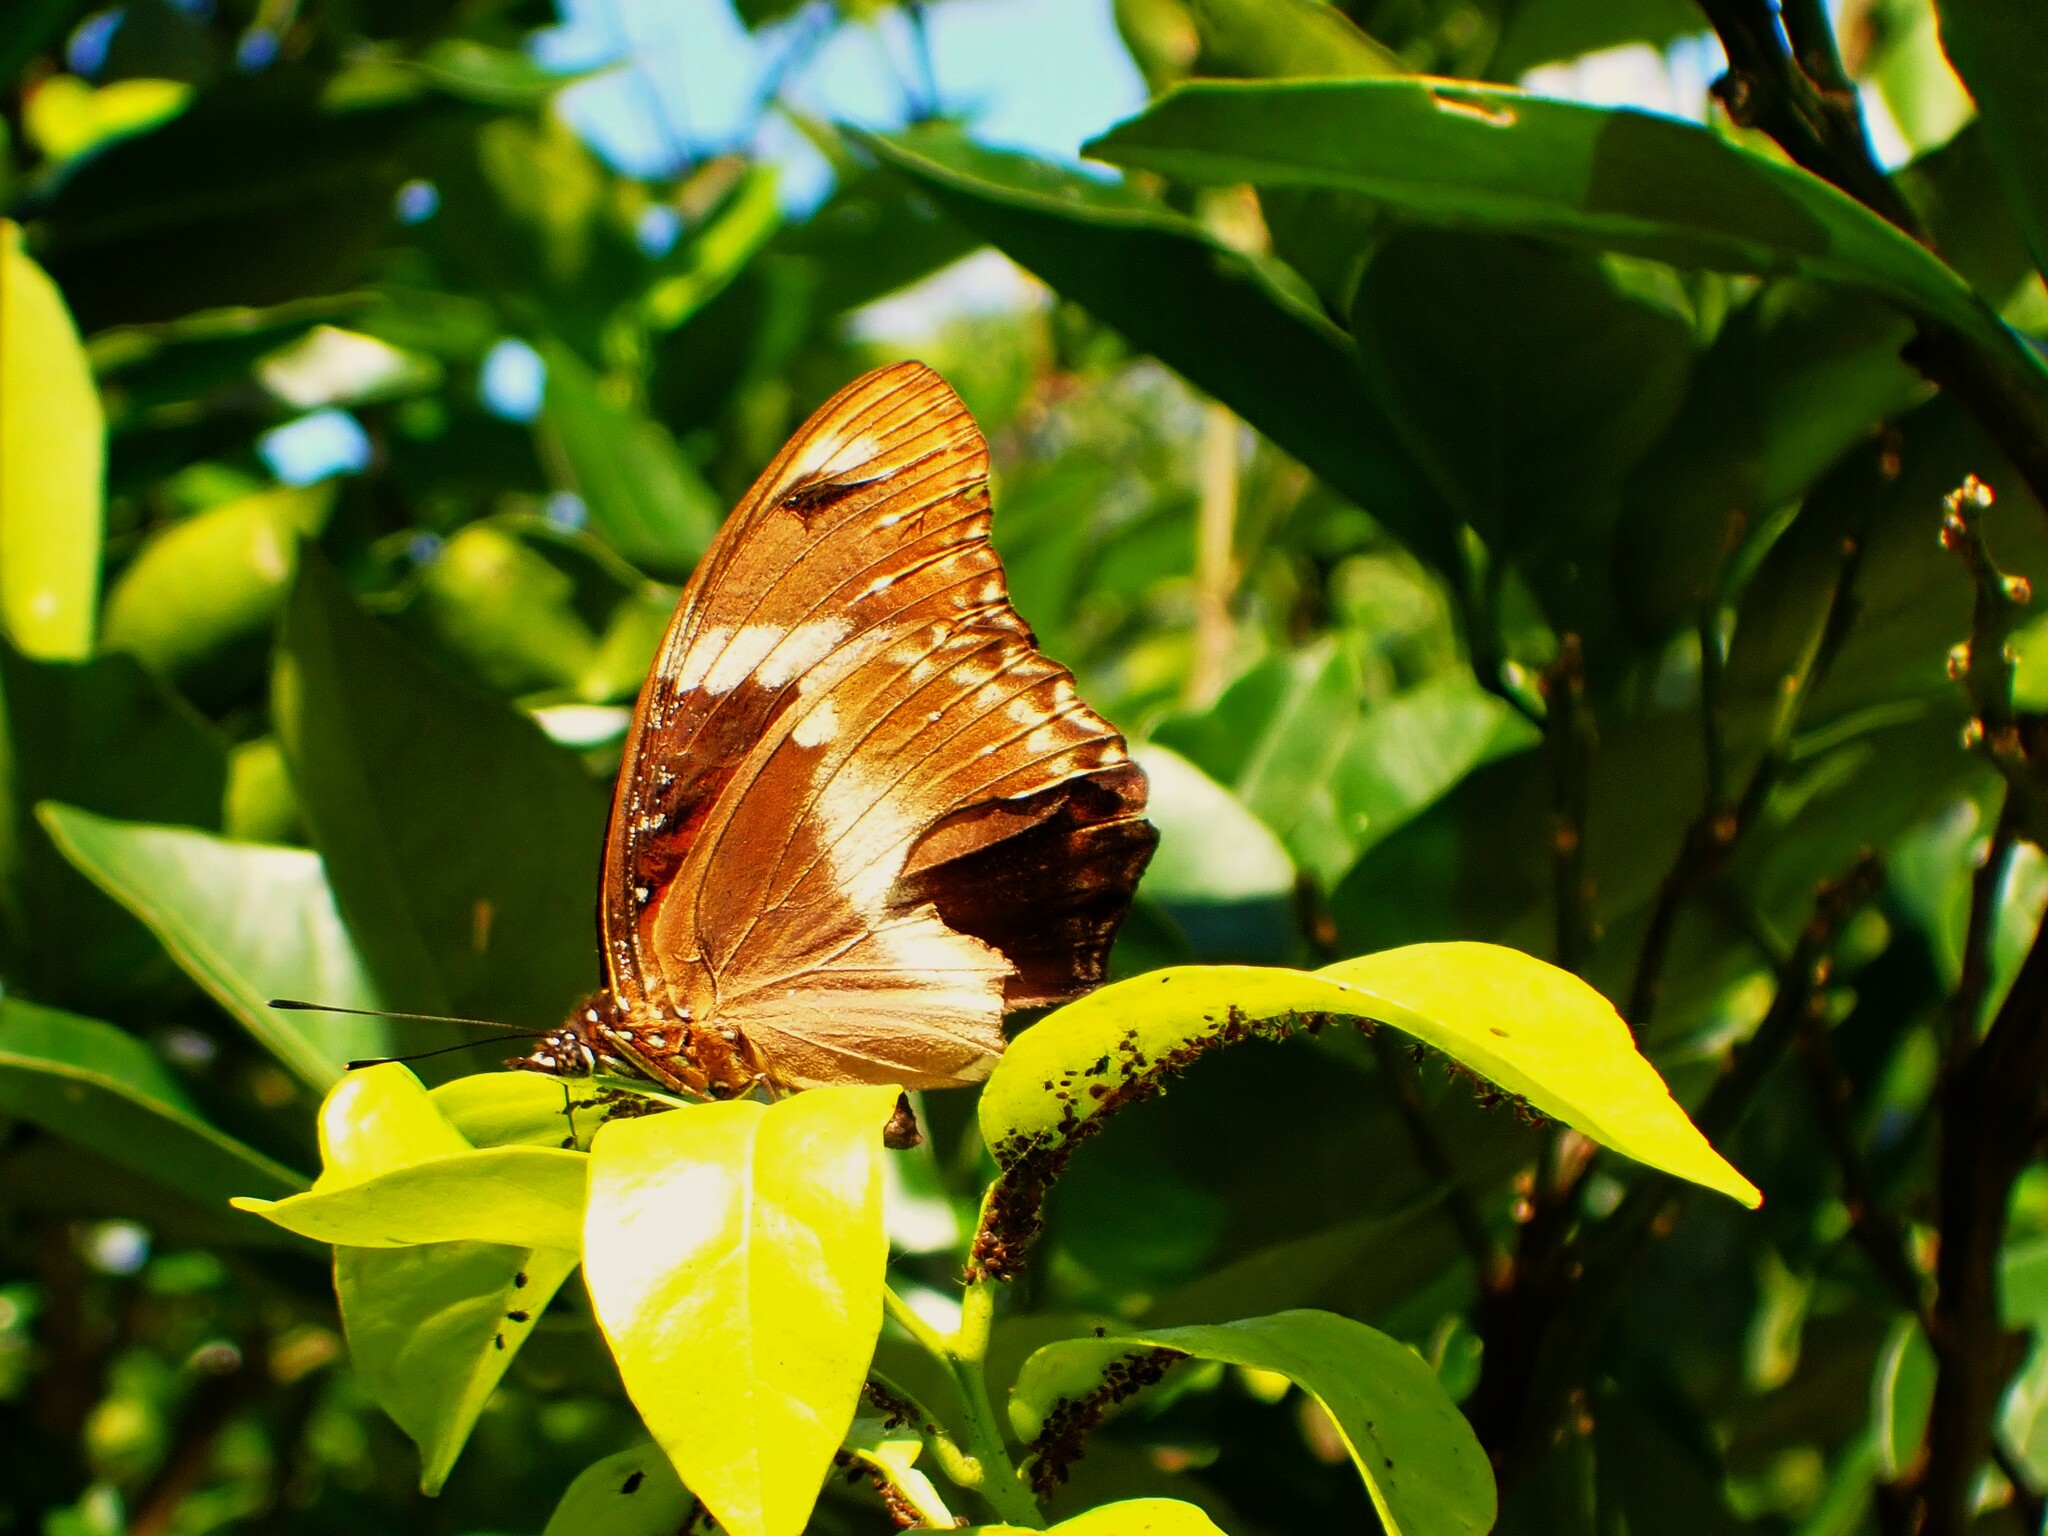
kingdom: Animalia
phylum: Arthropoda
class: Insecta
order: Lepidoptera
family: Nymphalidae
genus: Hypolimnas
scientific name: Hypolimnas bolina
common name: Great eggfly
